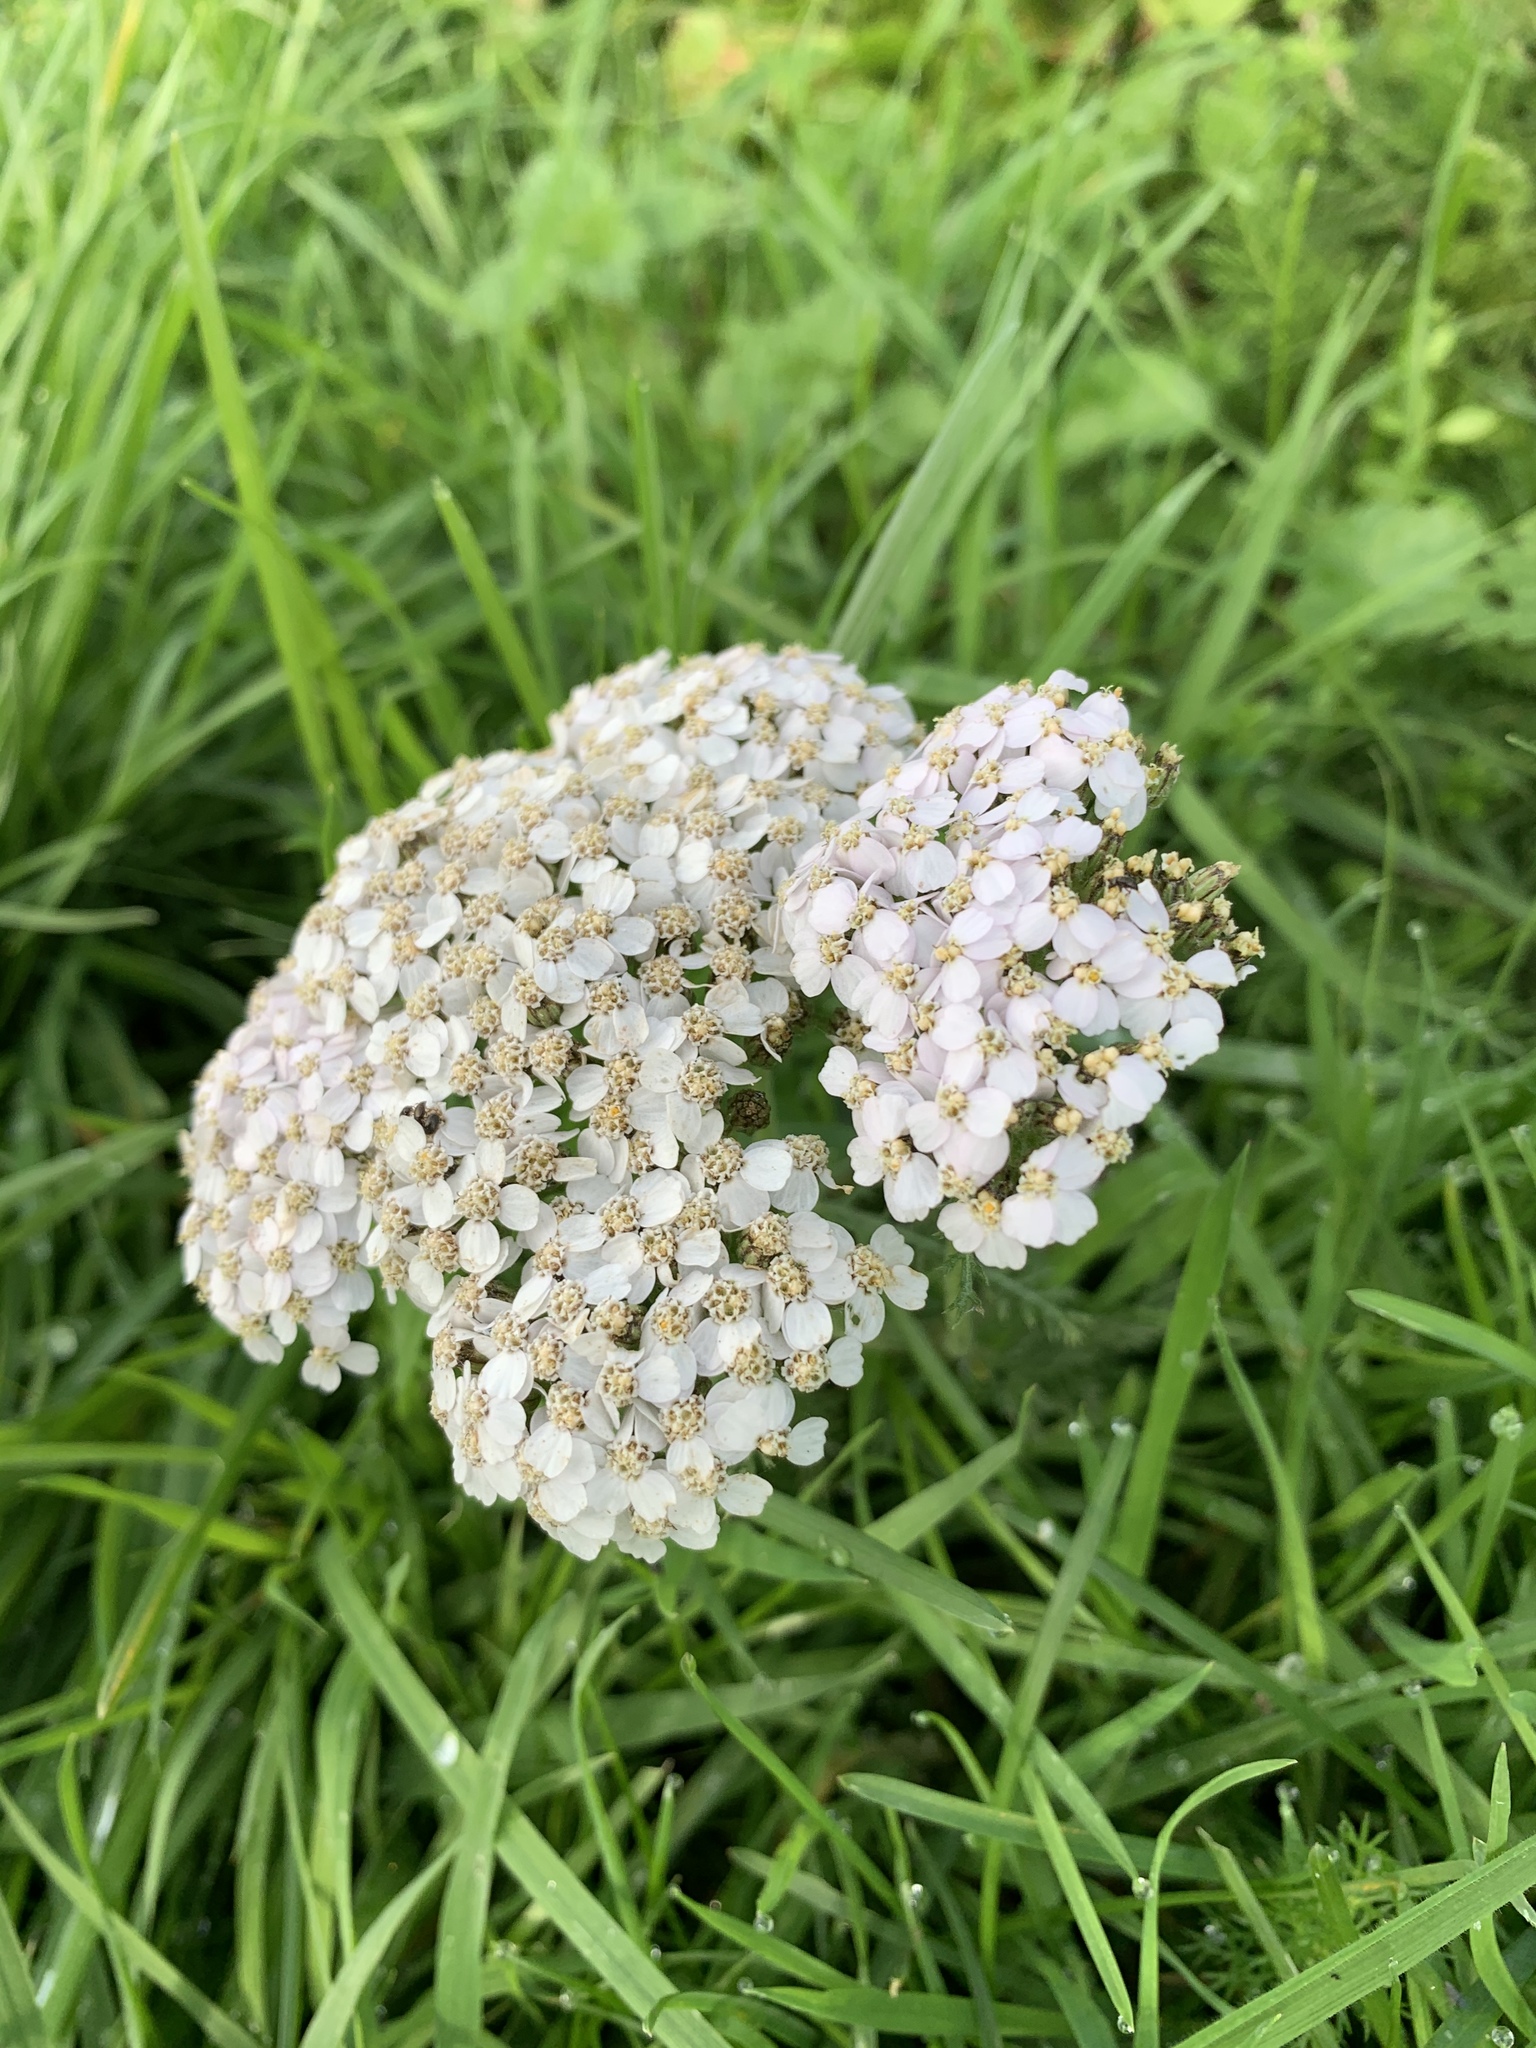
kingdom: Plantae
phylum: Tracheophyta
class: Magnoliopsida
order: Asterales
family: Asteraceae
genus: Achillea
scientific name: Achillea millefolium
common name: Yarrow
